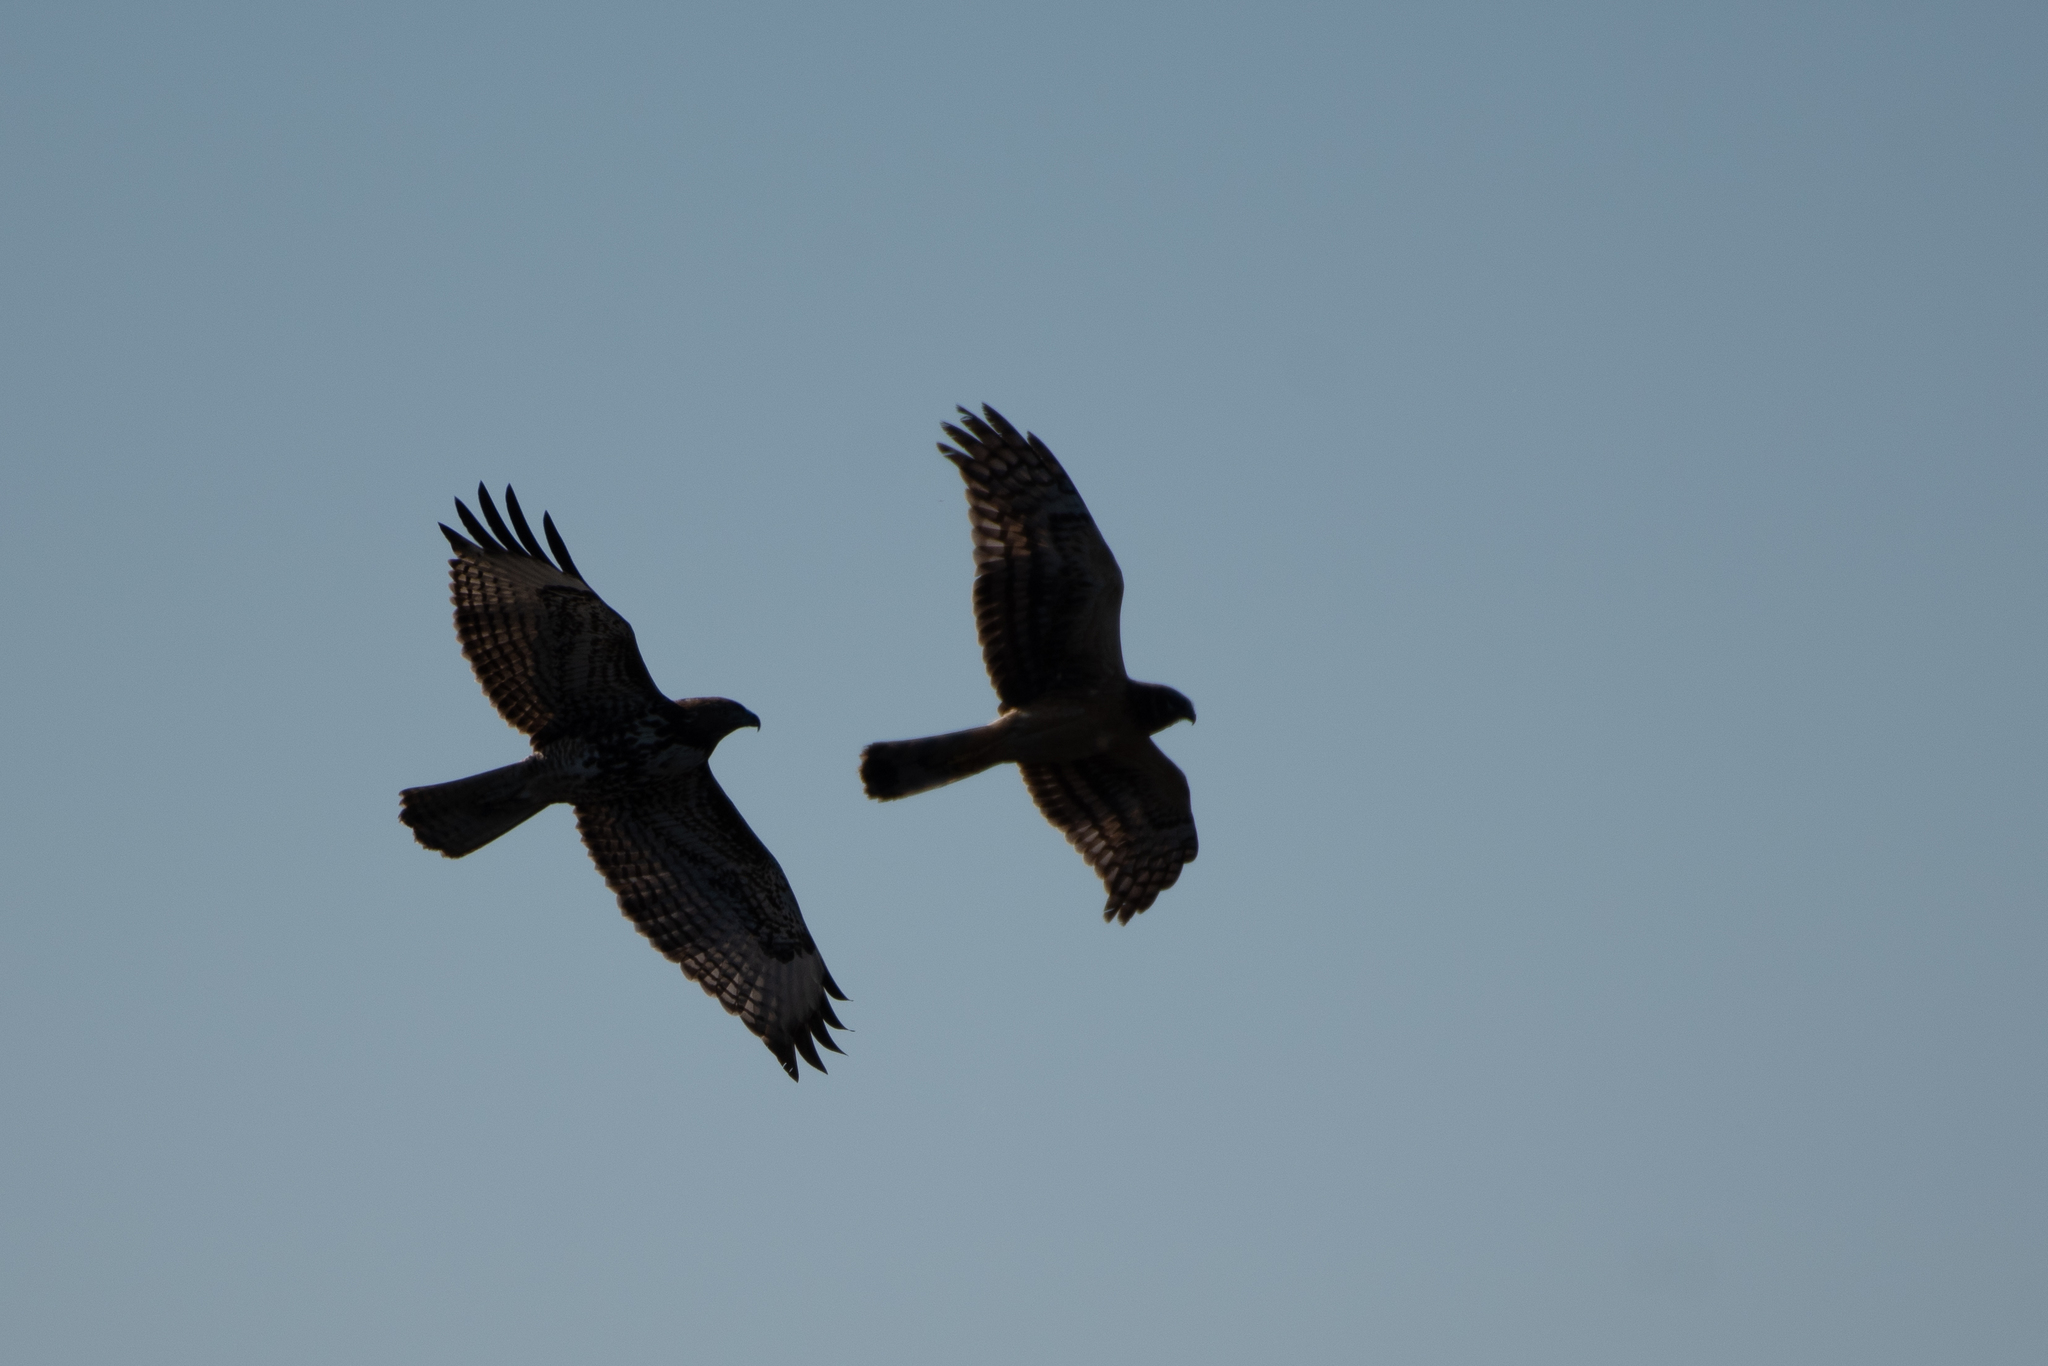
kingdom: Animalia
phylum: Chordata
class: Aves
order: Accipitriformes
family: Accipitridae
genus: Circus
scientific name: Circus cyaneus
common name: Hen harrier
